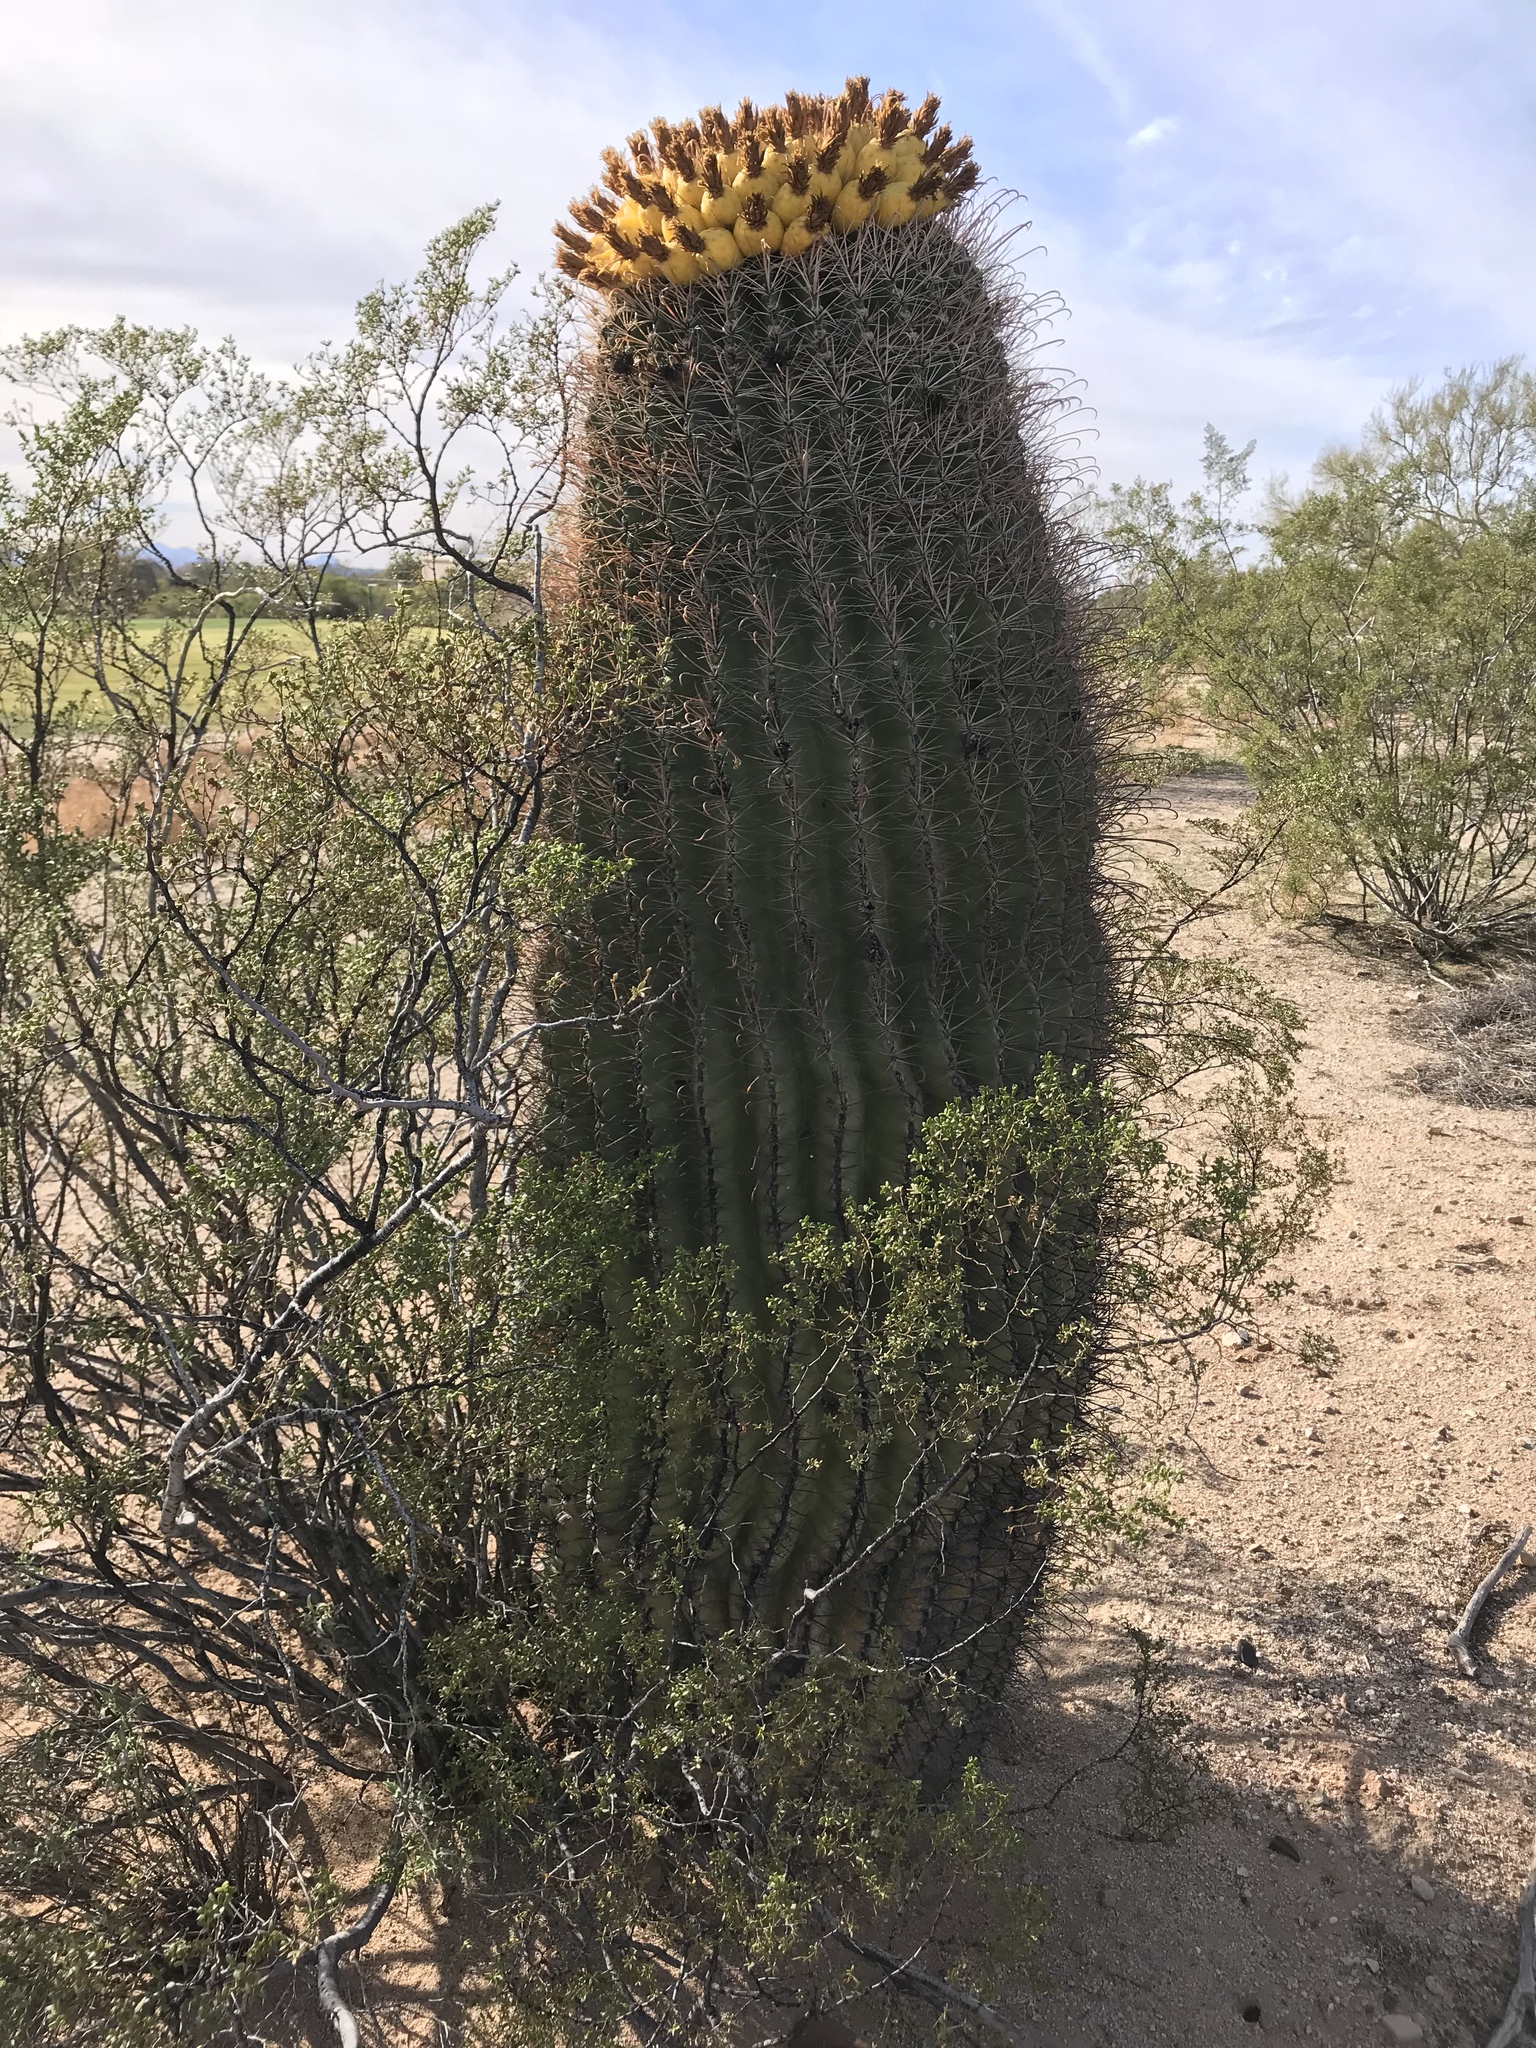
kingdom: Plantae
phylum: Tracheophyta
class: Magnoliopsida
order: Caryophyllales
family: Cactaceae
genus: Ferocactus
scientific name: Ferocactus wislizeni
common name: Candy barrel cactus
